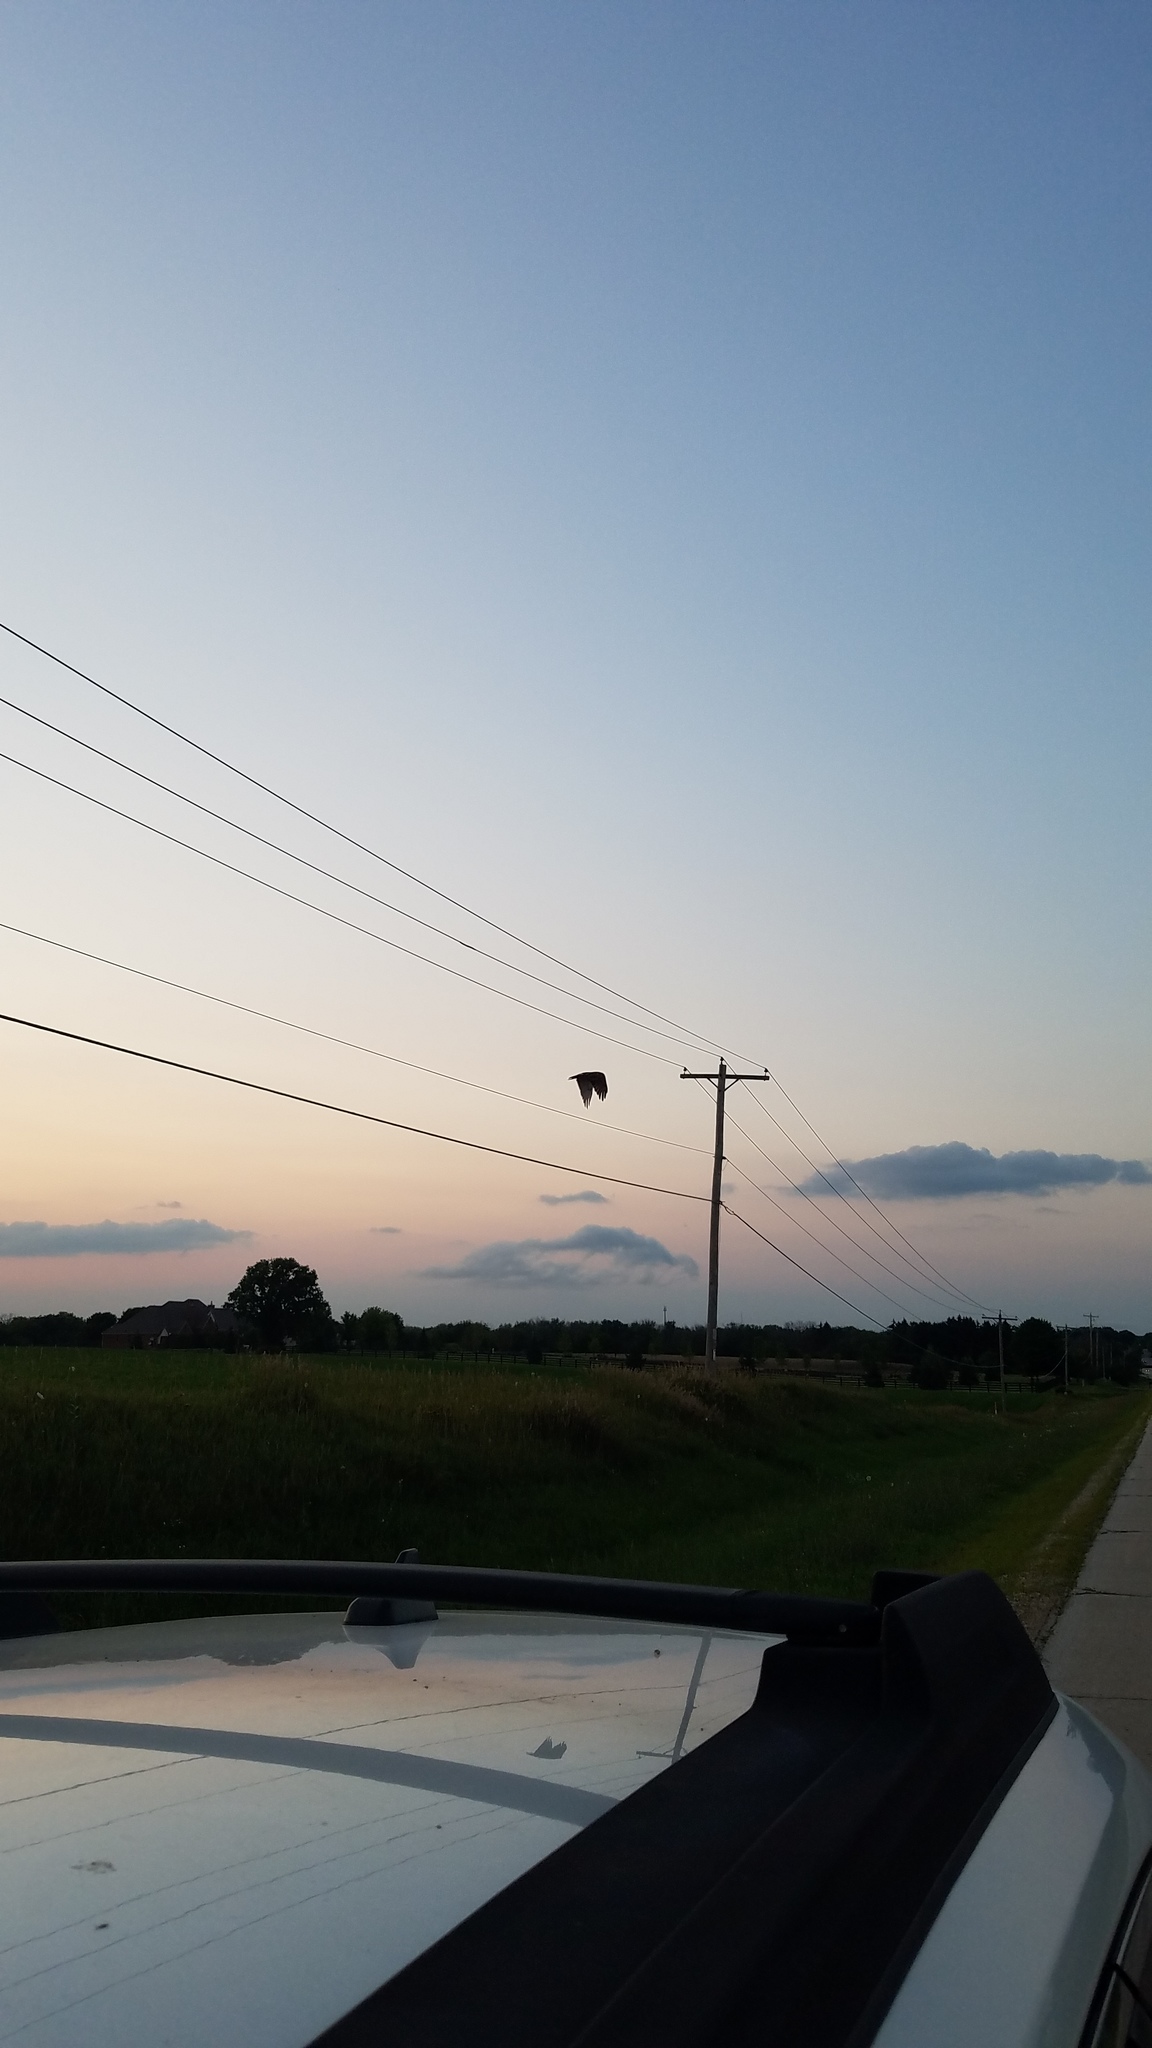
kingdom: Animalia
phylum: Chordata
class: Aves
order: Accipitriformes
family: Accipitridae
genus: Buteo
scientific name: Buteo jamaicensis
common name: Red-tailed hawk
